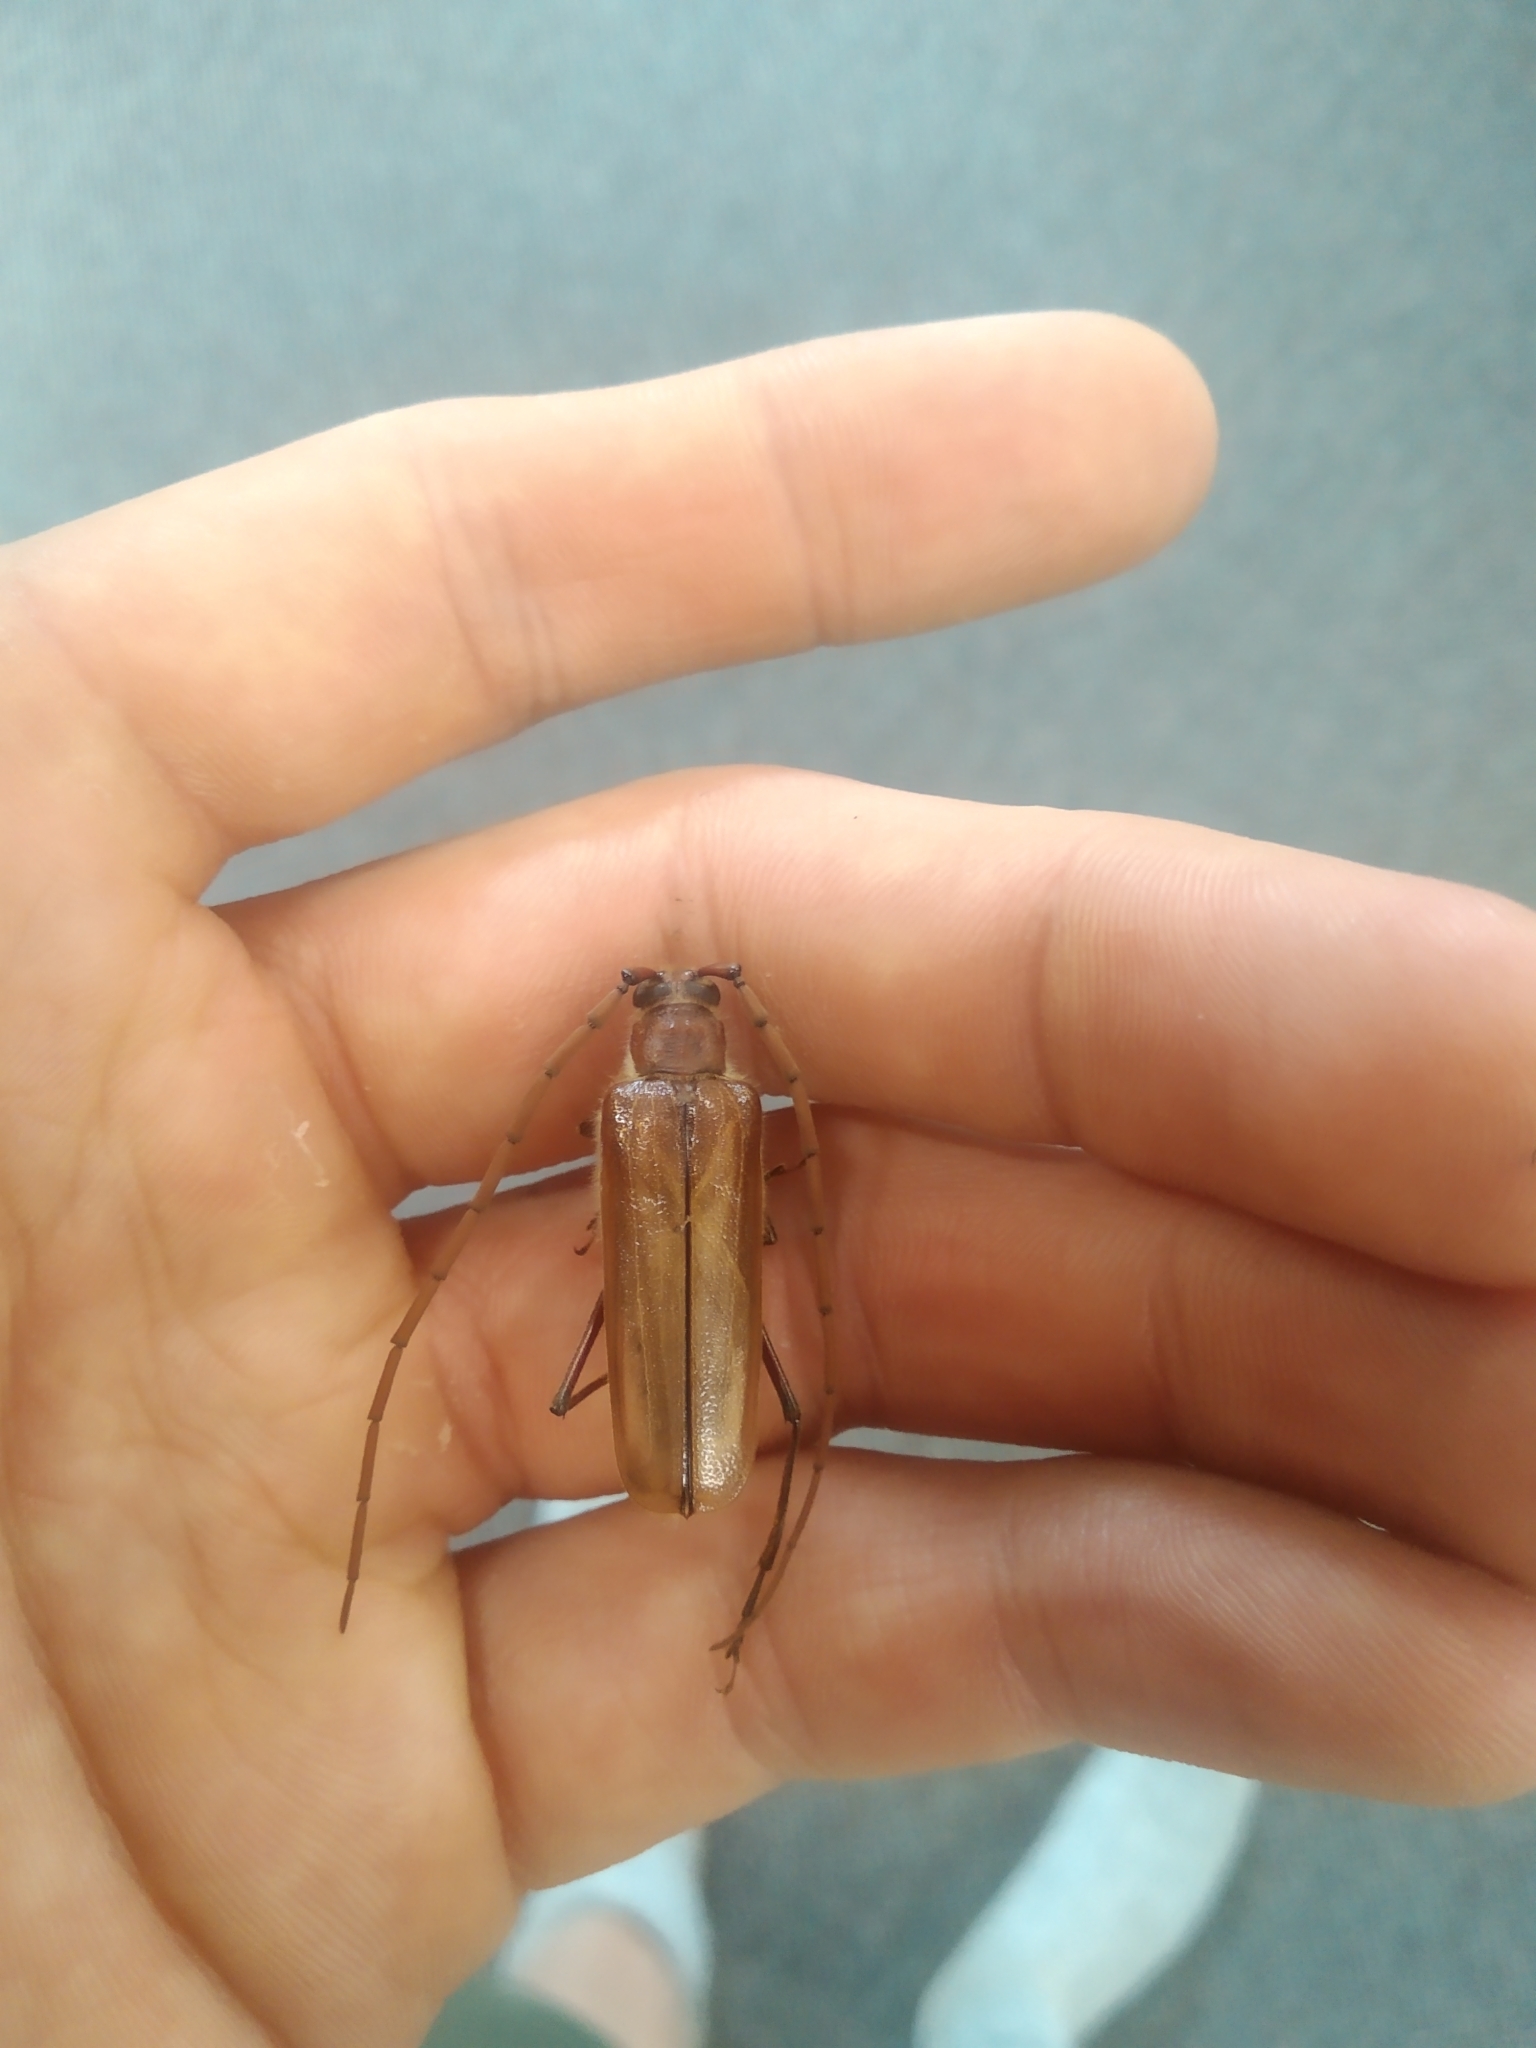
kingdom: Animalia
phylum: Arthropoda
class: Insecta
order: Coleoptera
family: Cerambycidae
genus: Ochrocydus
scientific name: Ochrocydus huttoni
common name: Kanuka longhorn
